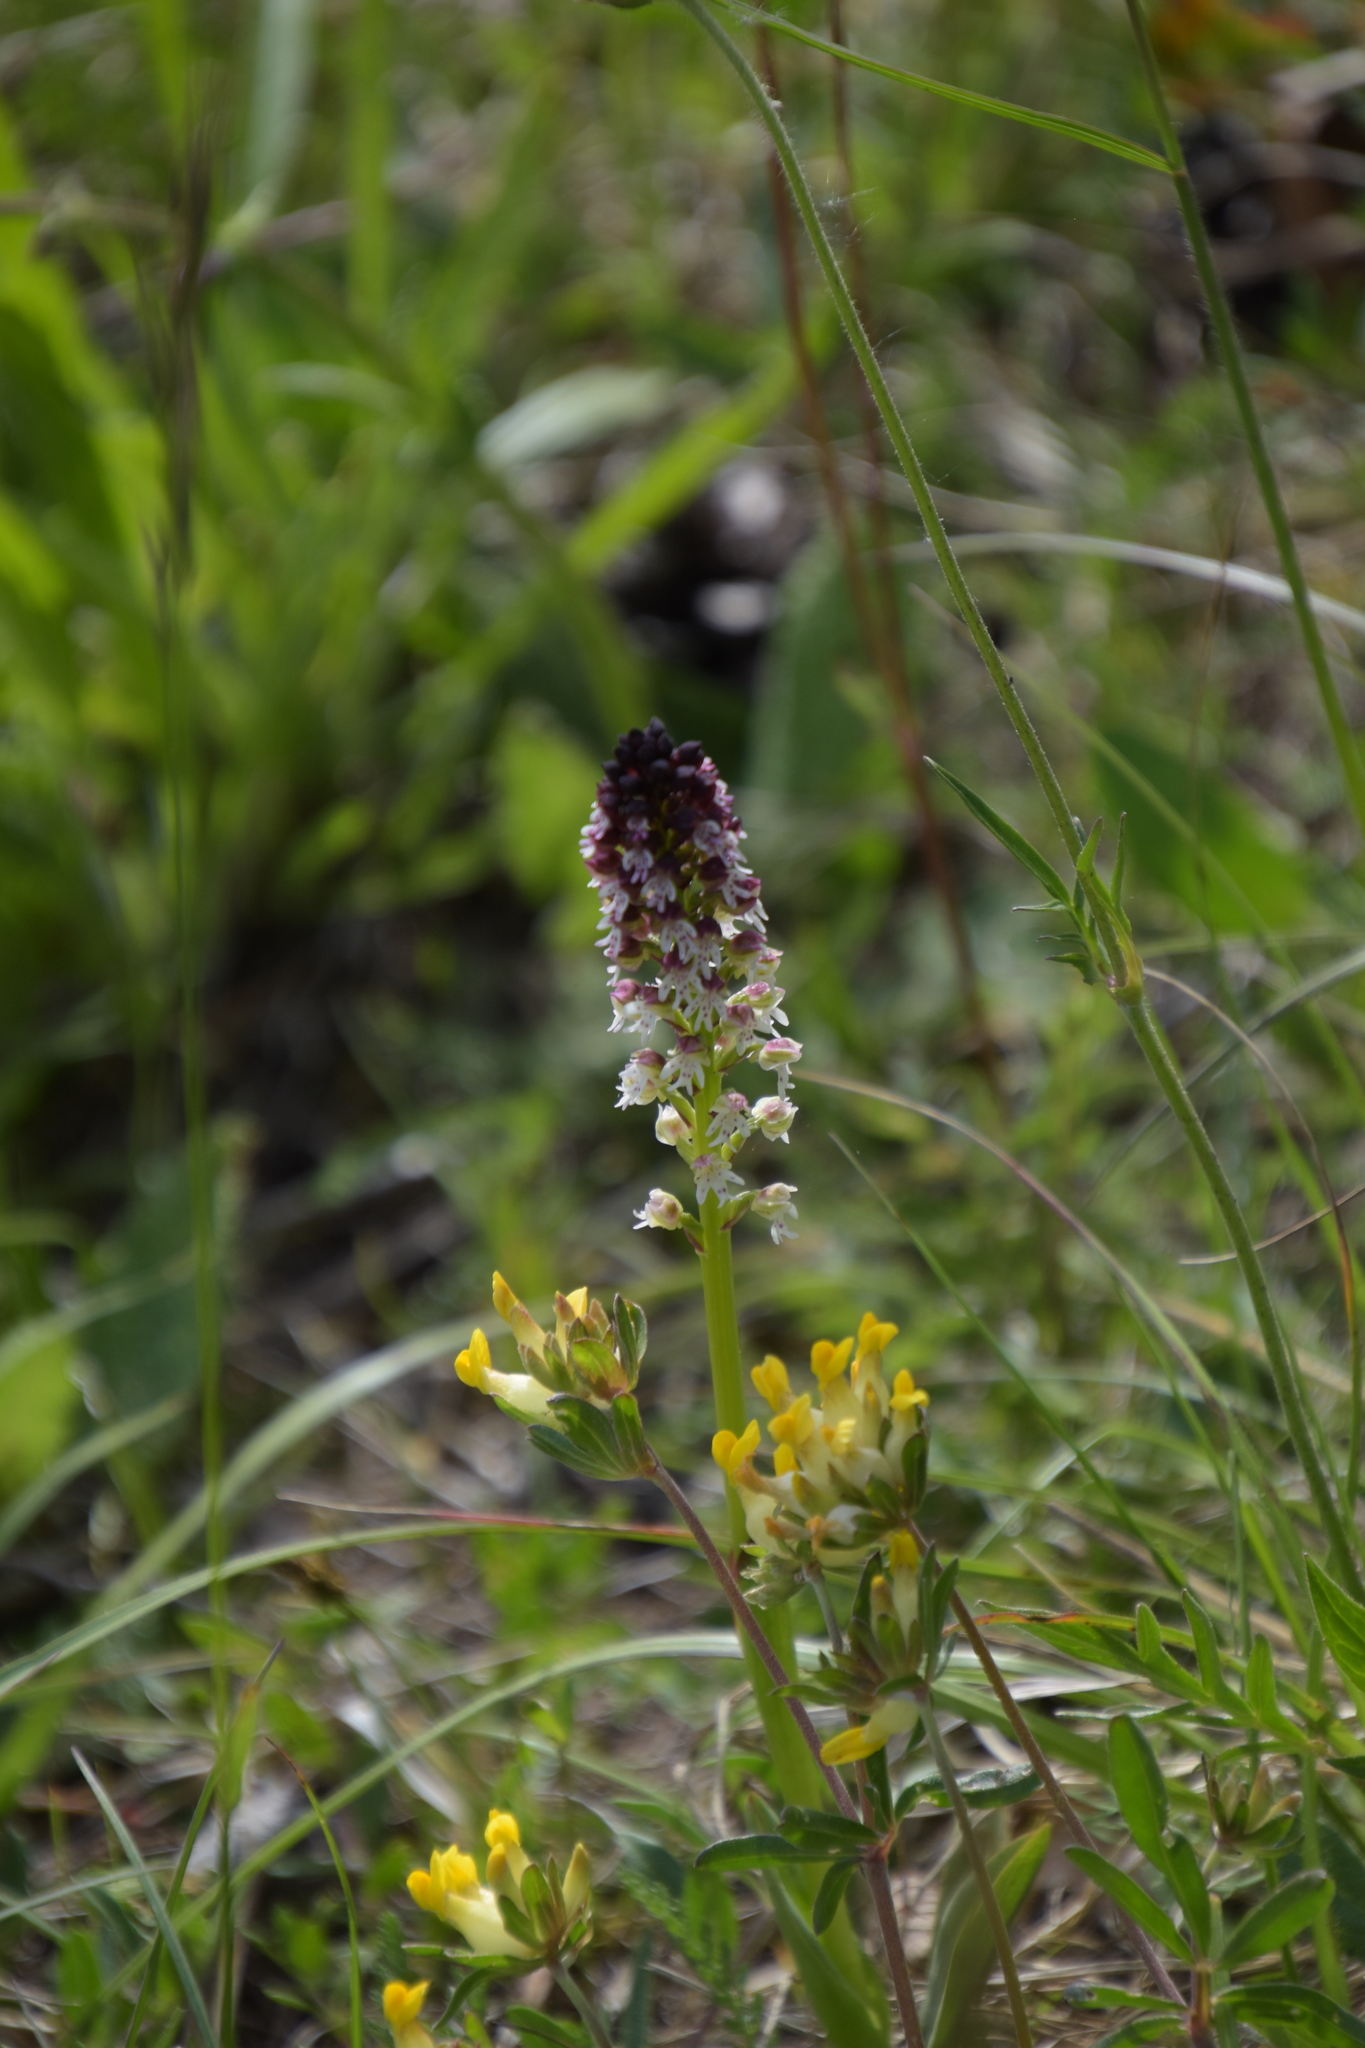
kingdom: Plantae
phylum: Tracheophyta
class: Liliopsida
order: Asparagales
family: Orchidaceae
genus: Neotinea
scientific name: Neotinea ustulata
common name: Burnt orchid
